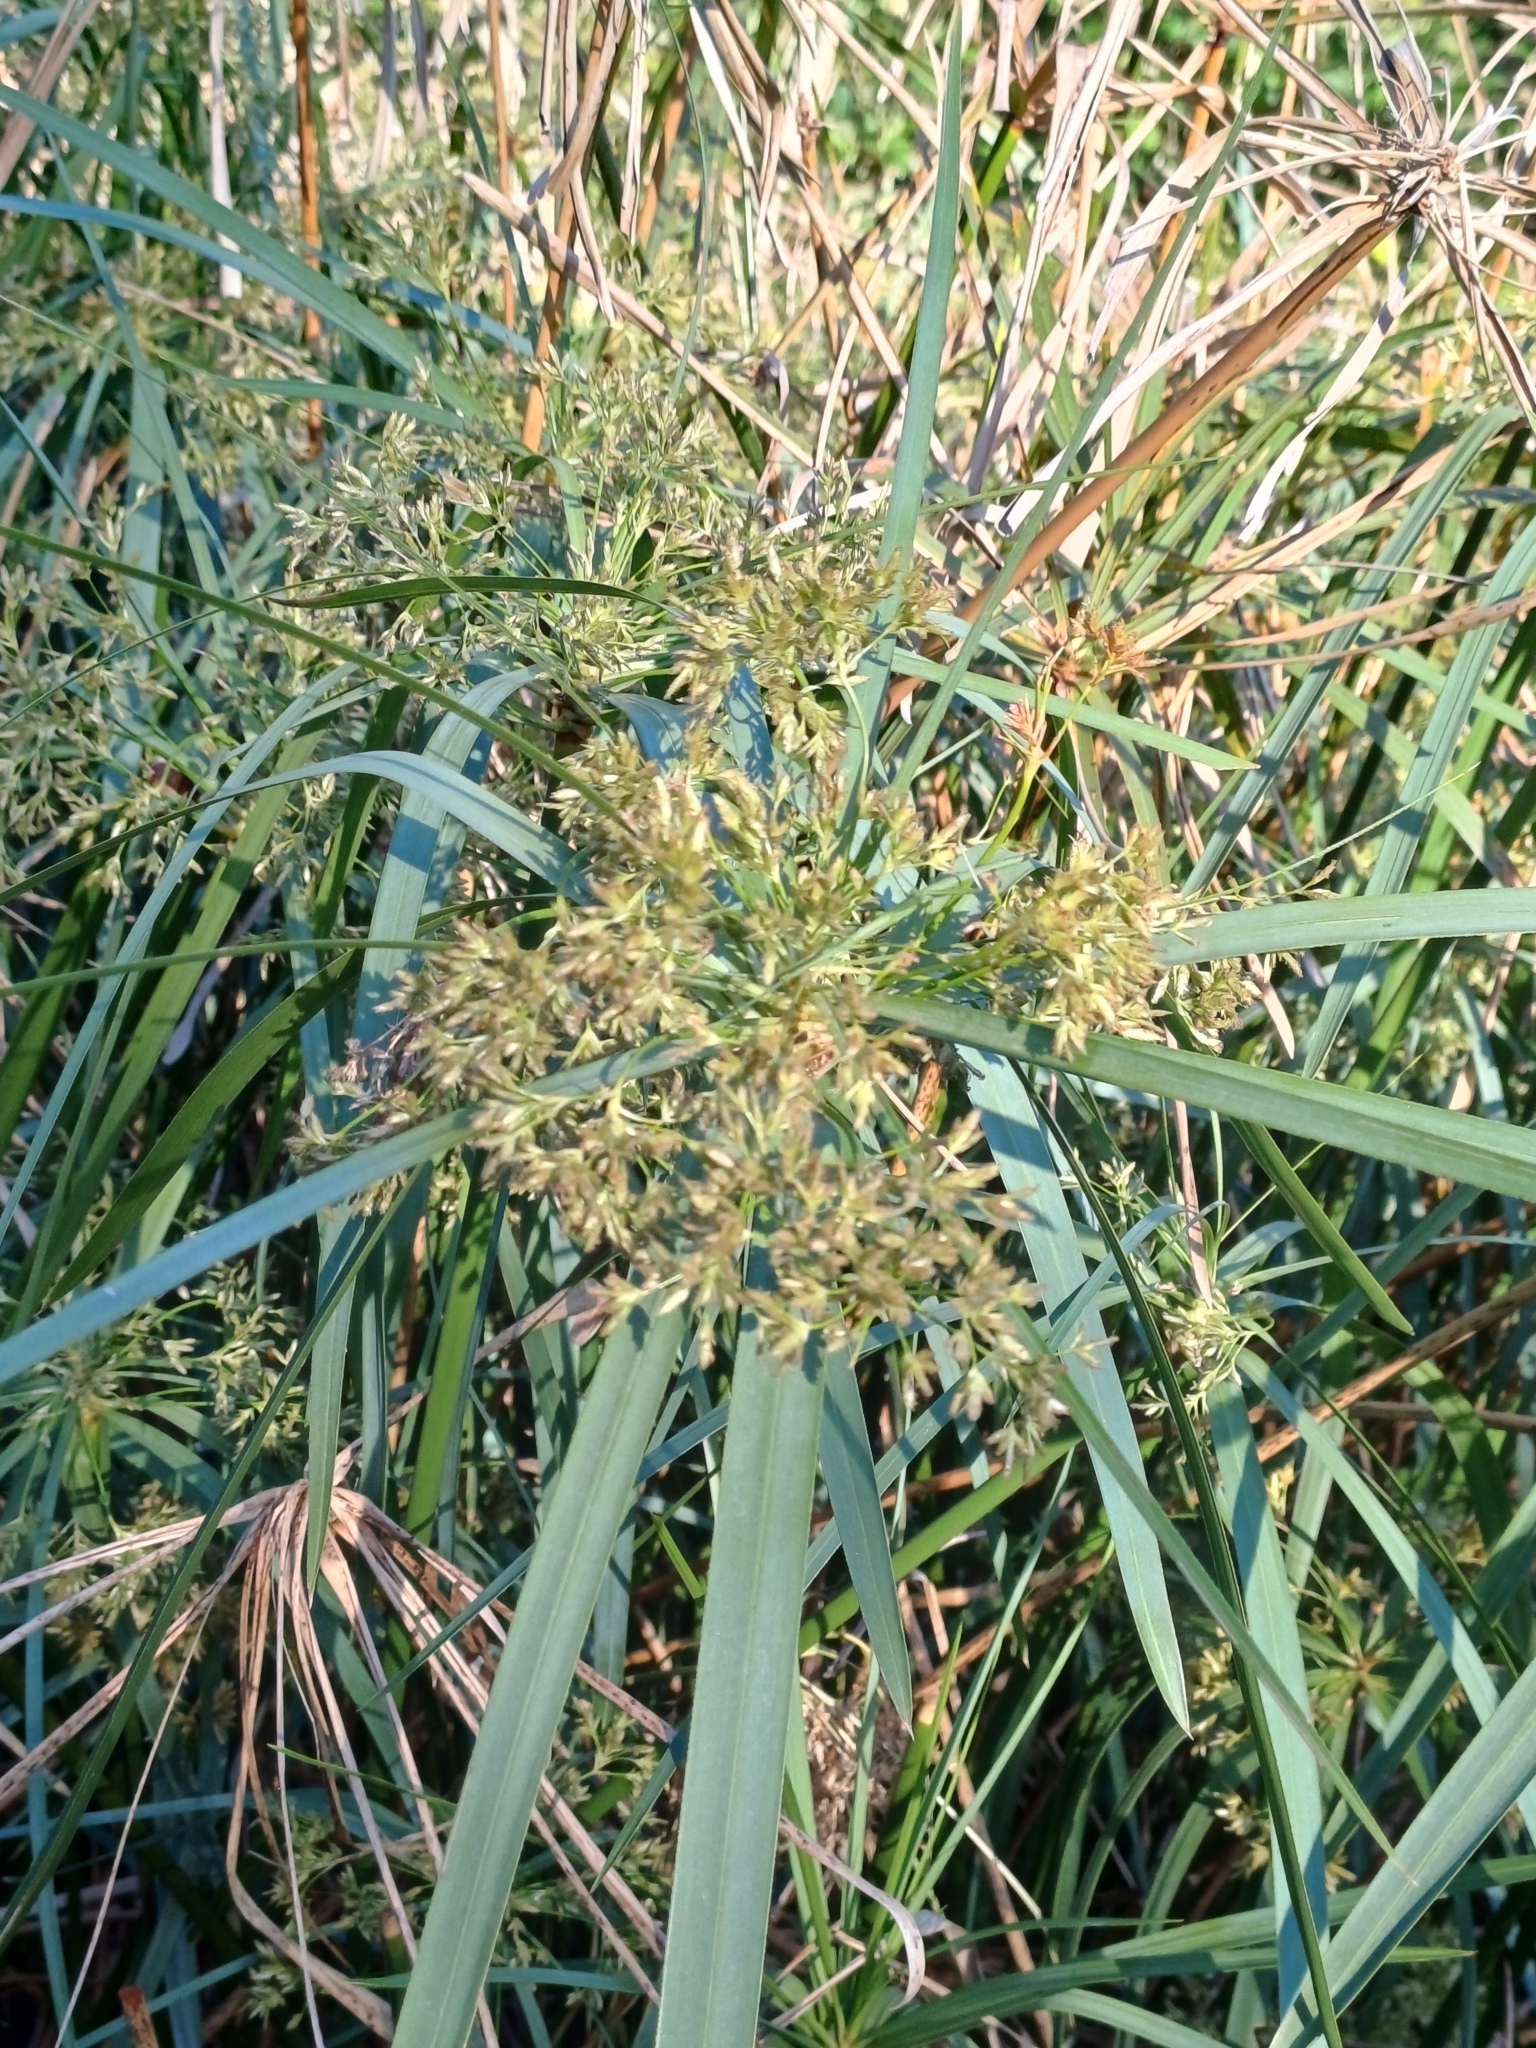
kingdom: Plantae
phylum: Tracheophyta
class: Liliopsida
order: Poales
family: Cyperaceae
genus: Cyperus
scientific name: Cyperus alternifolius
